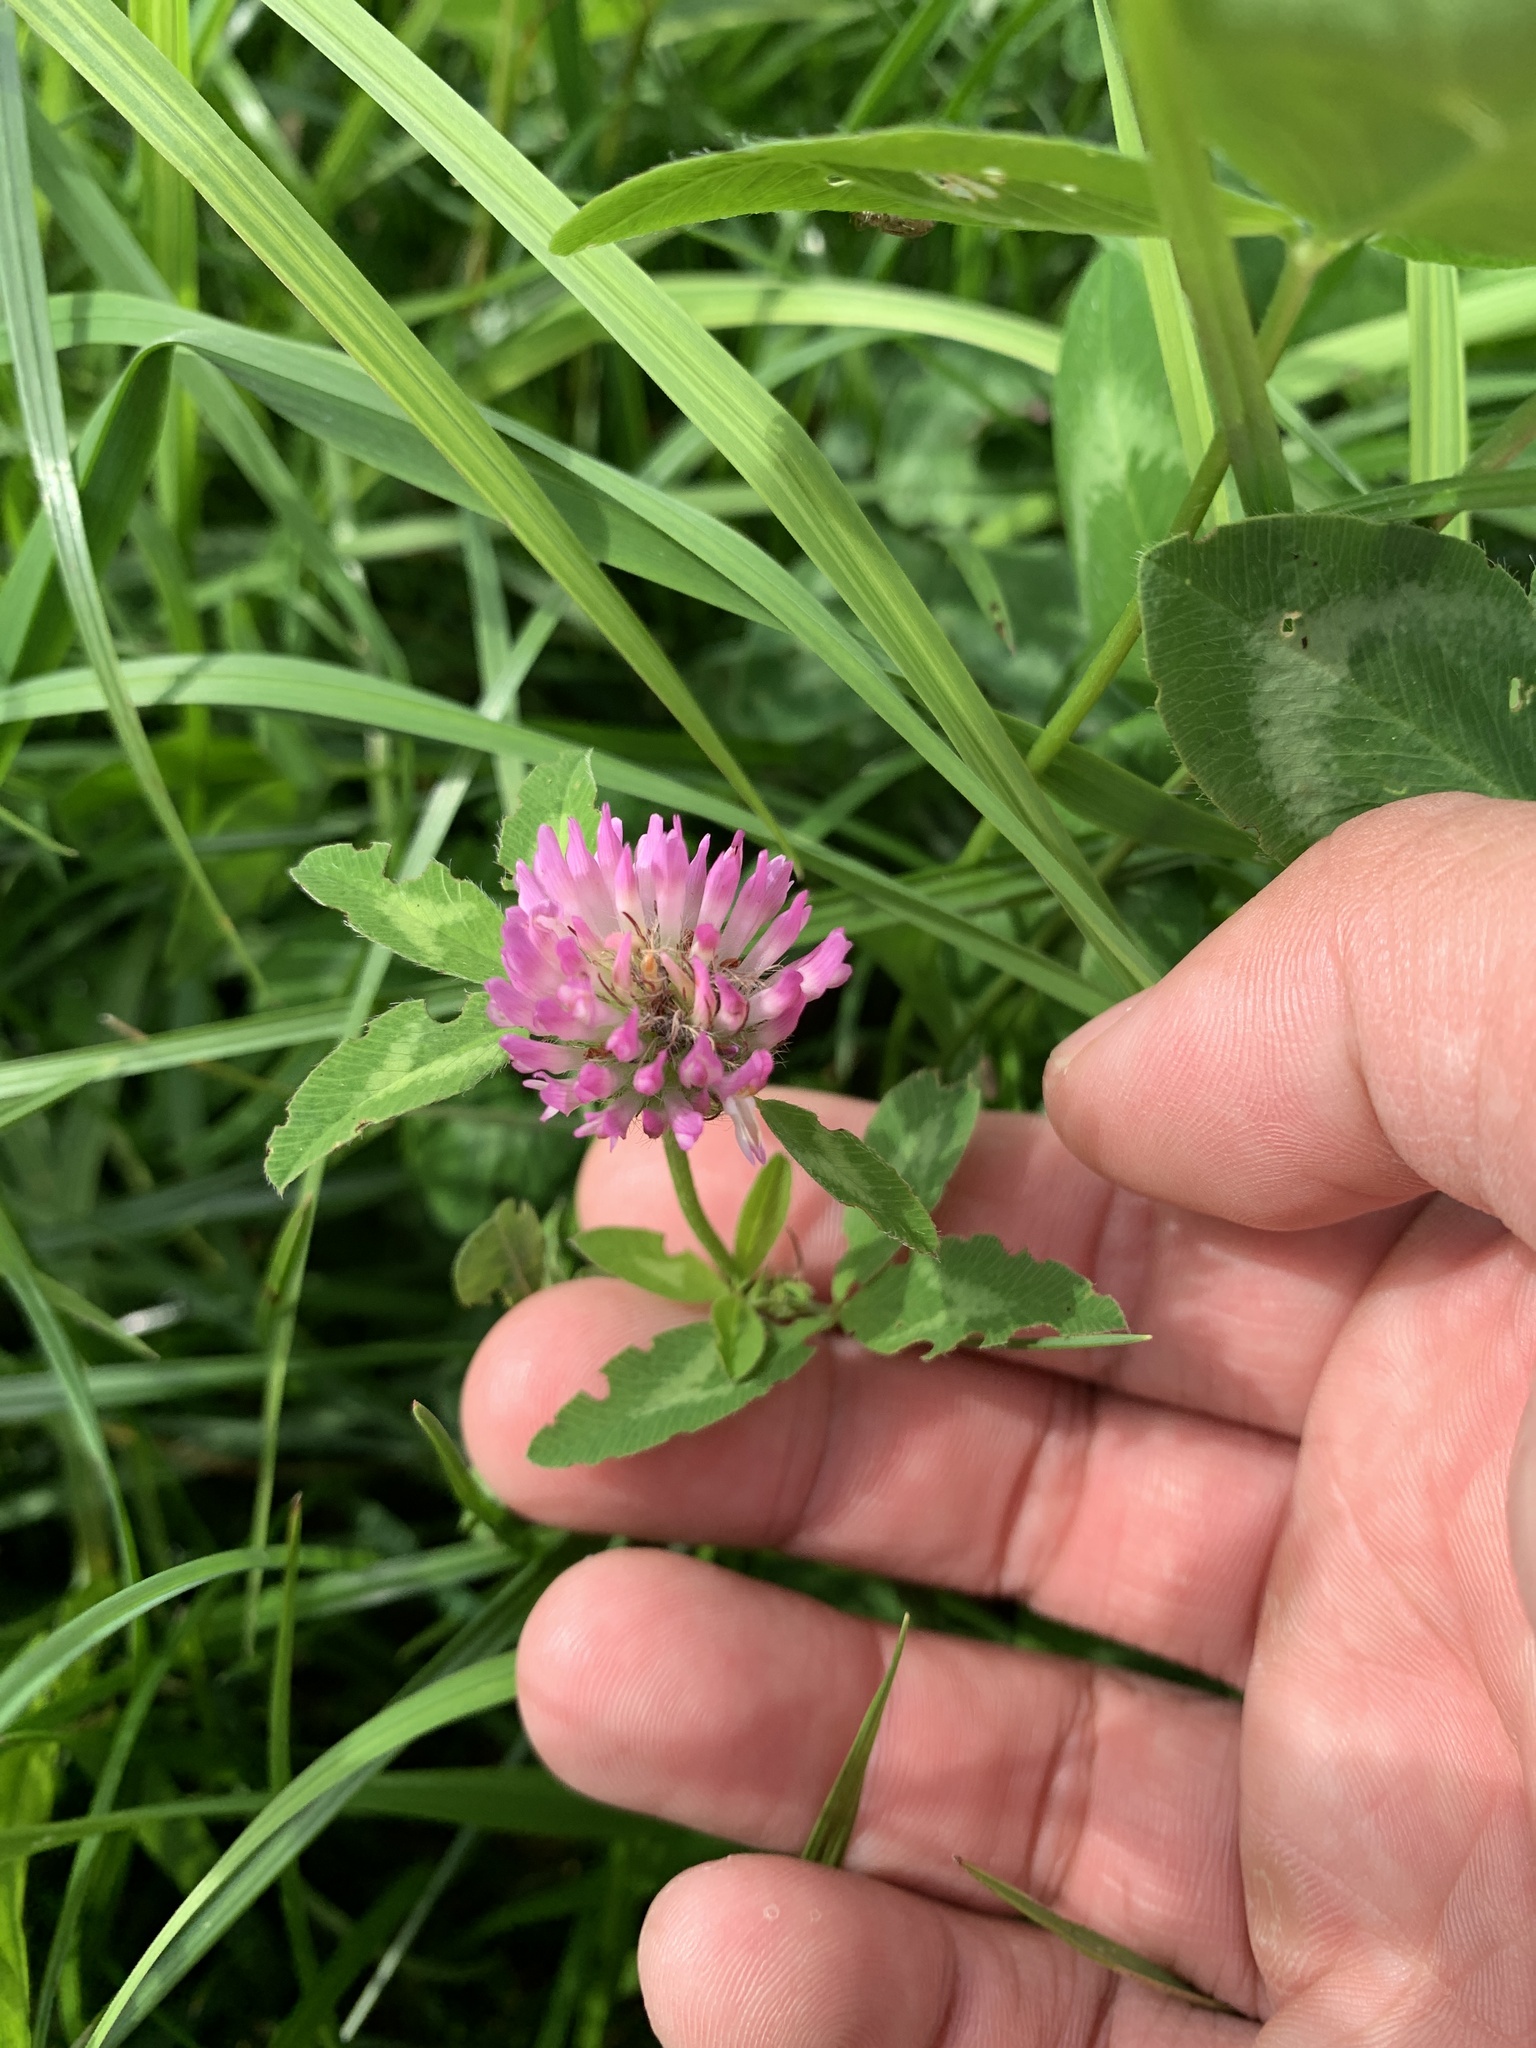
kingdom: Plantae
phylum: Tracheophyta
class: Magnoliopsida
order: Fabales
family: Fabaceae
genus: Trifolium
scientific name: Trifolium pratense
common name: Red clover
